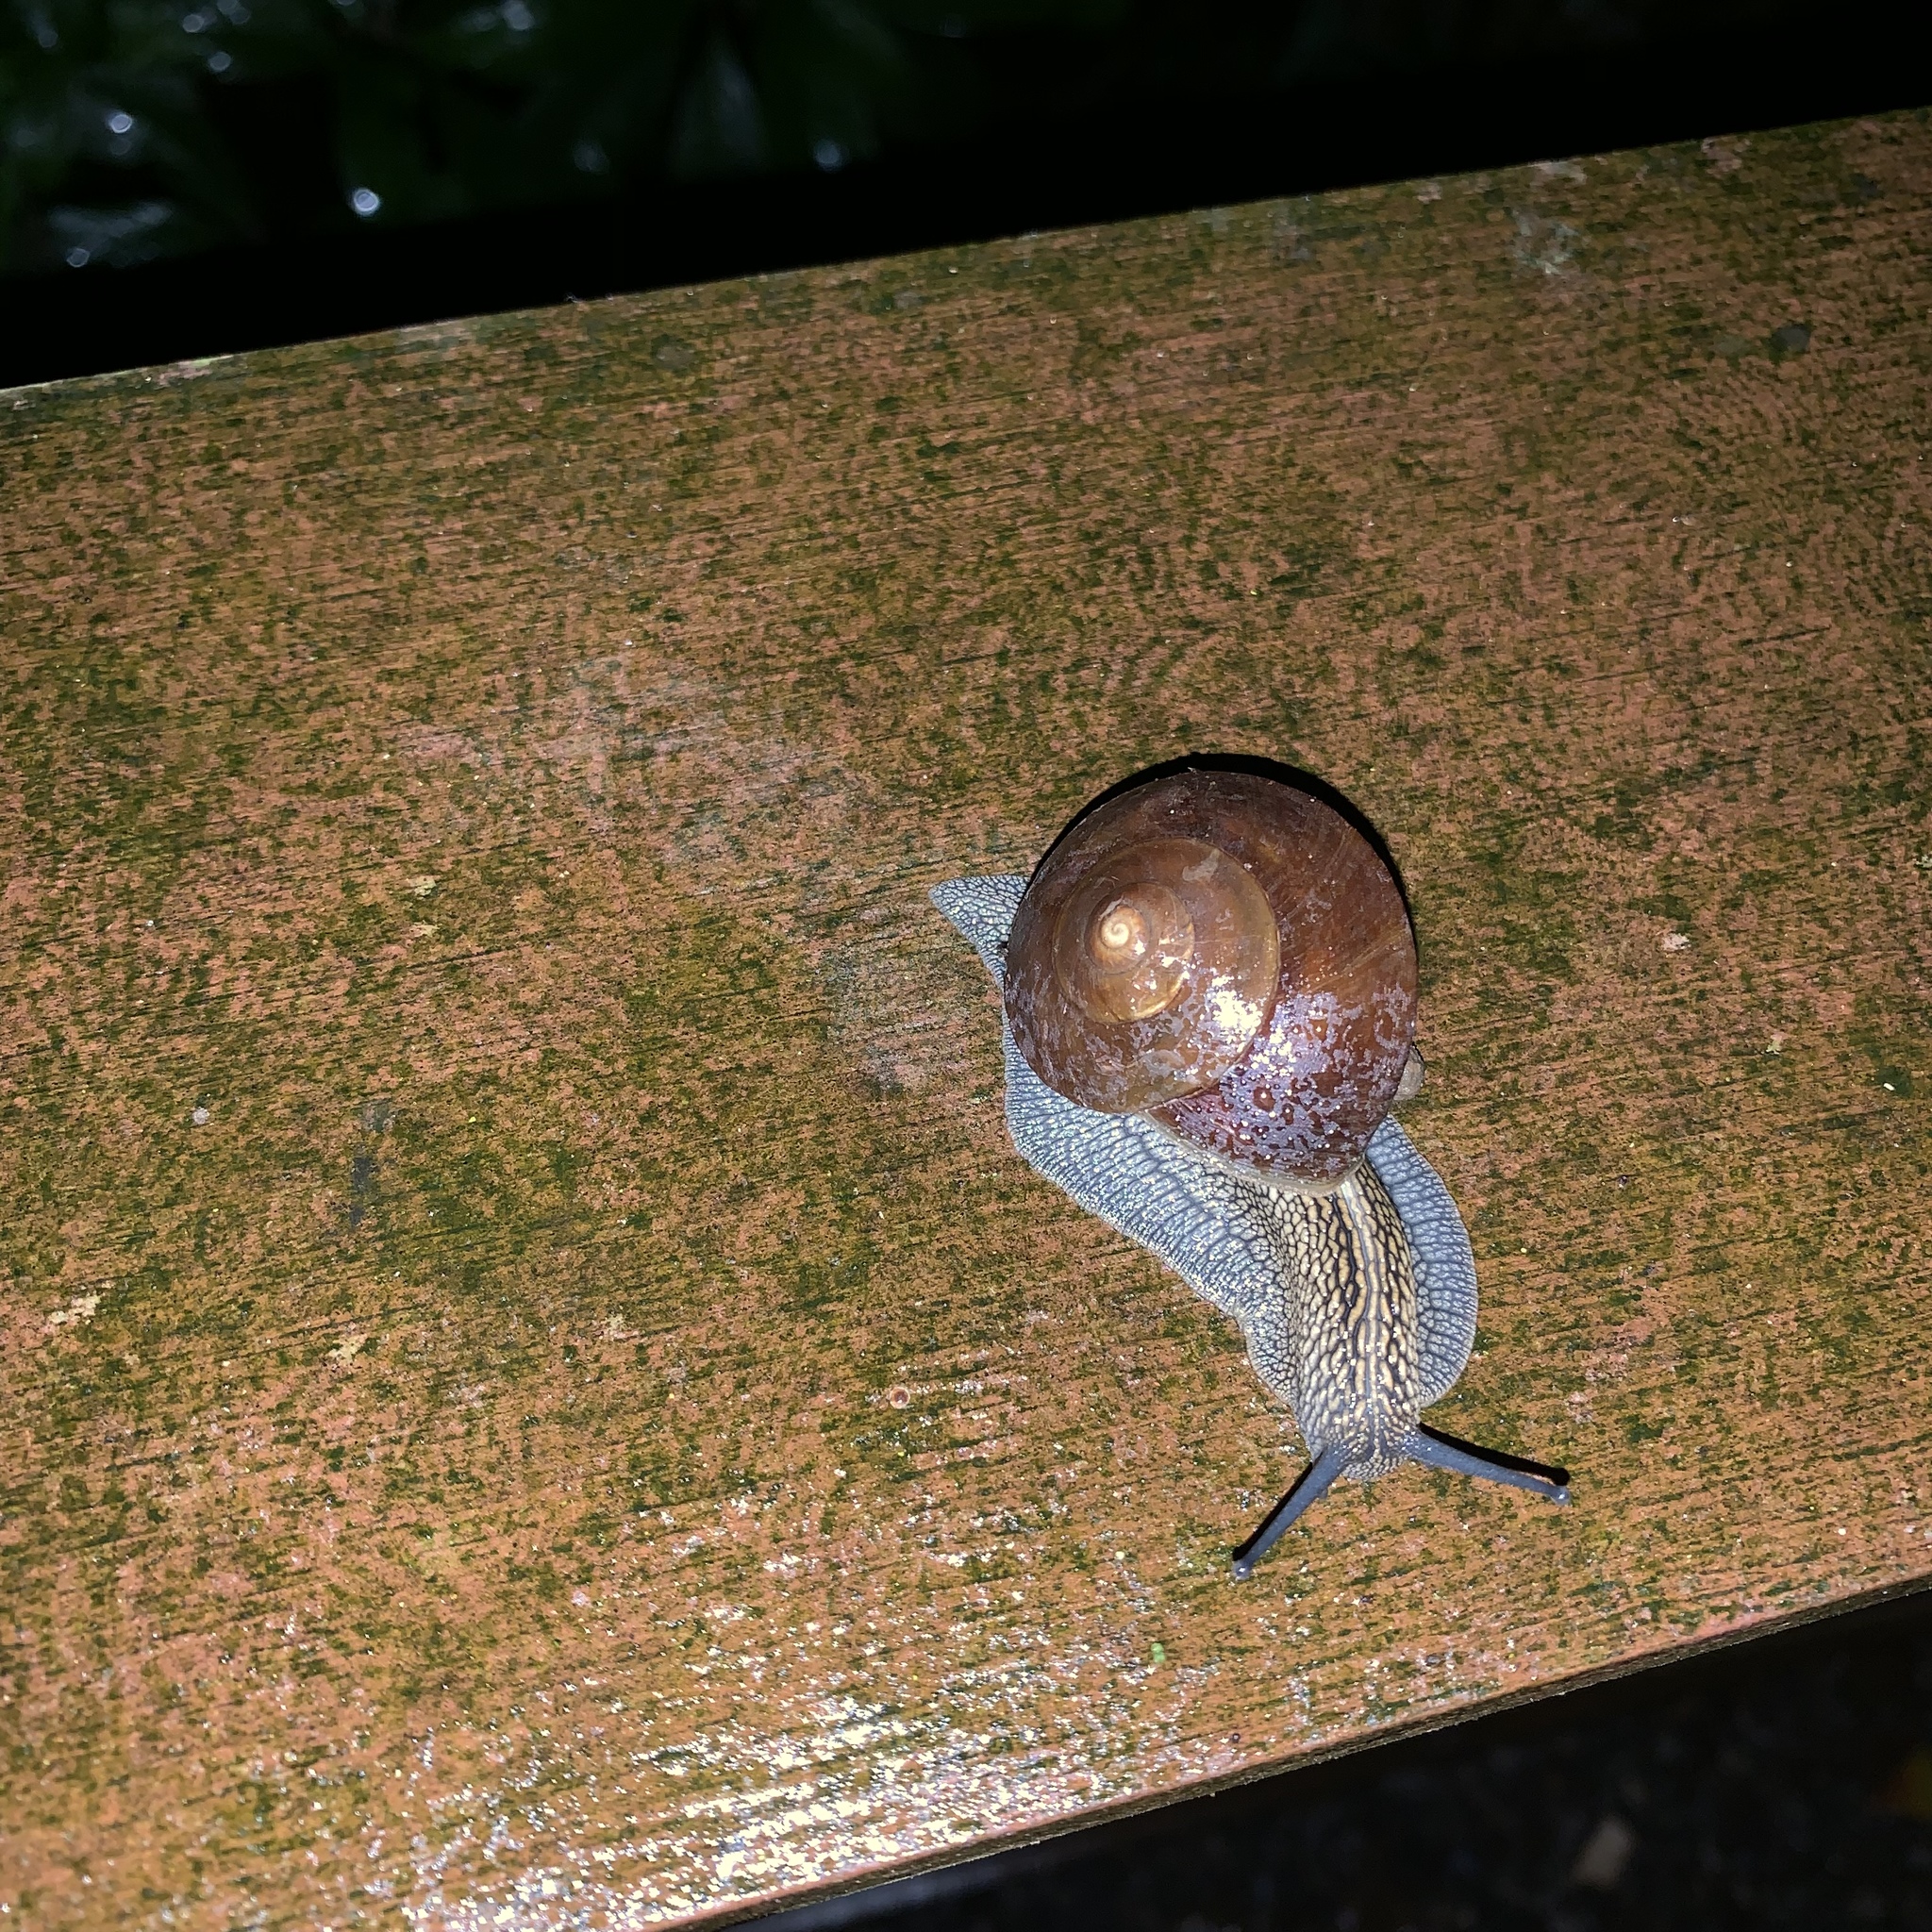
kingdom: Animalia
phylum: Mollusca
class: Gastropoda
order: Stylommatophora
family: Camaenidae
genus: Nesiohelix
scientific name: Nesiohelix swinhoei
